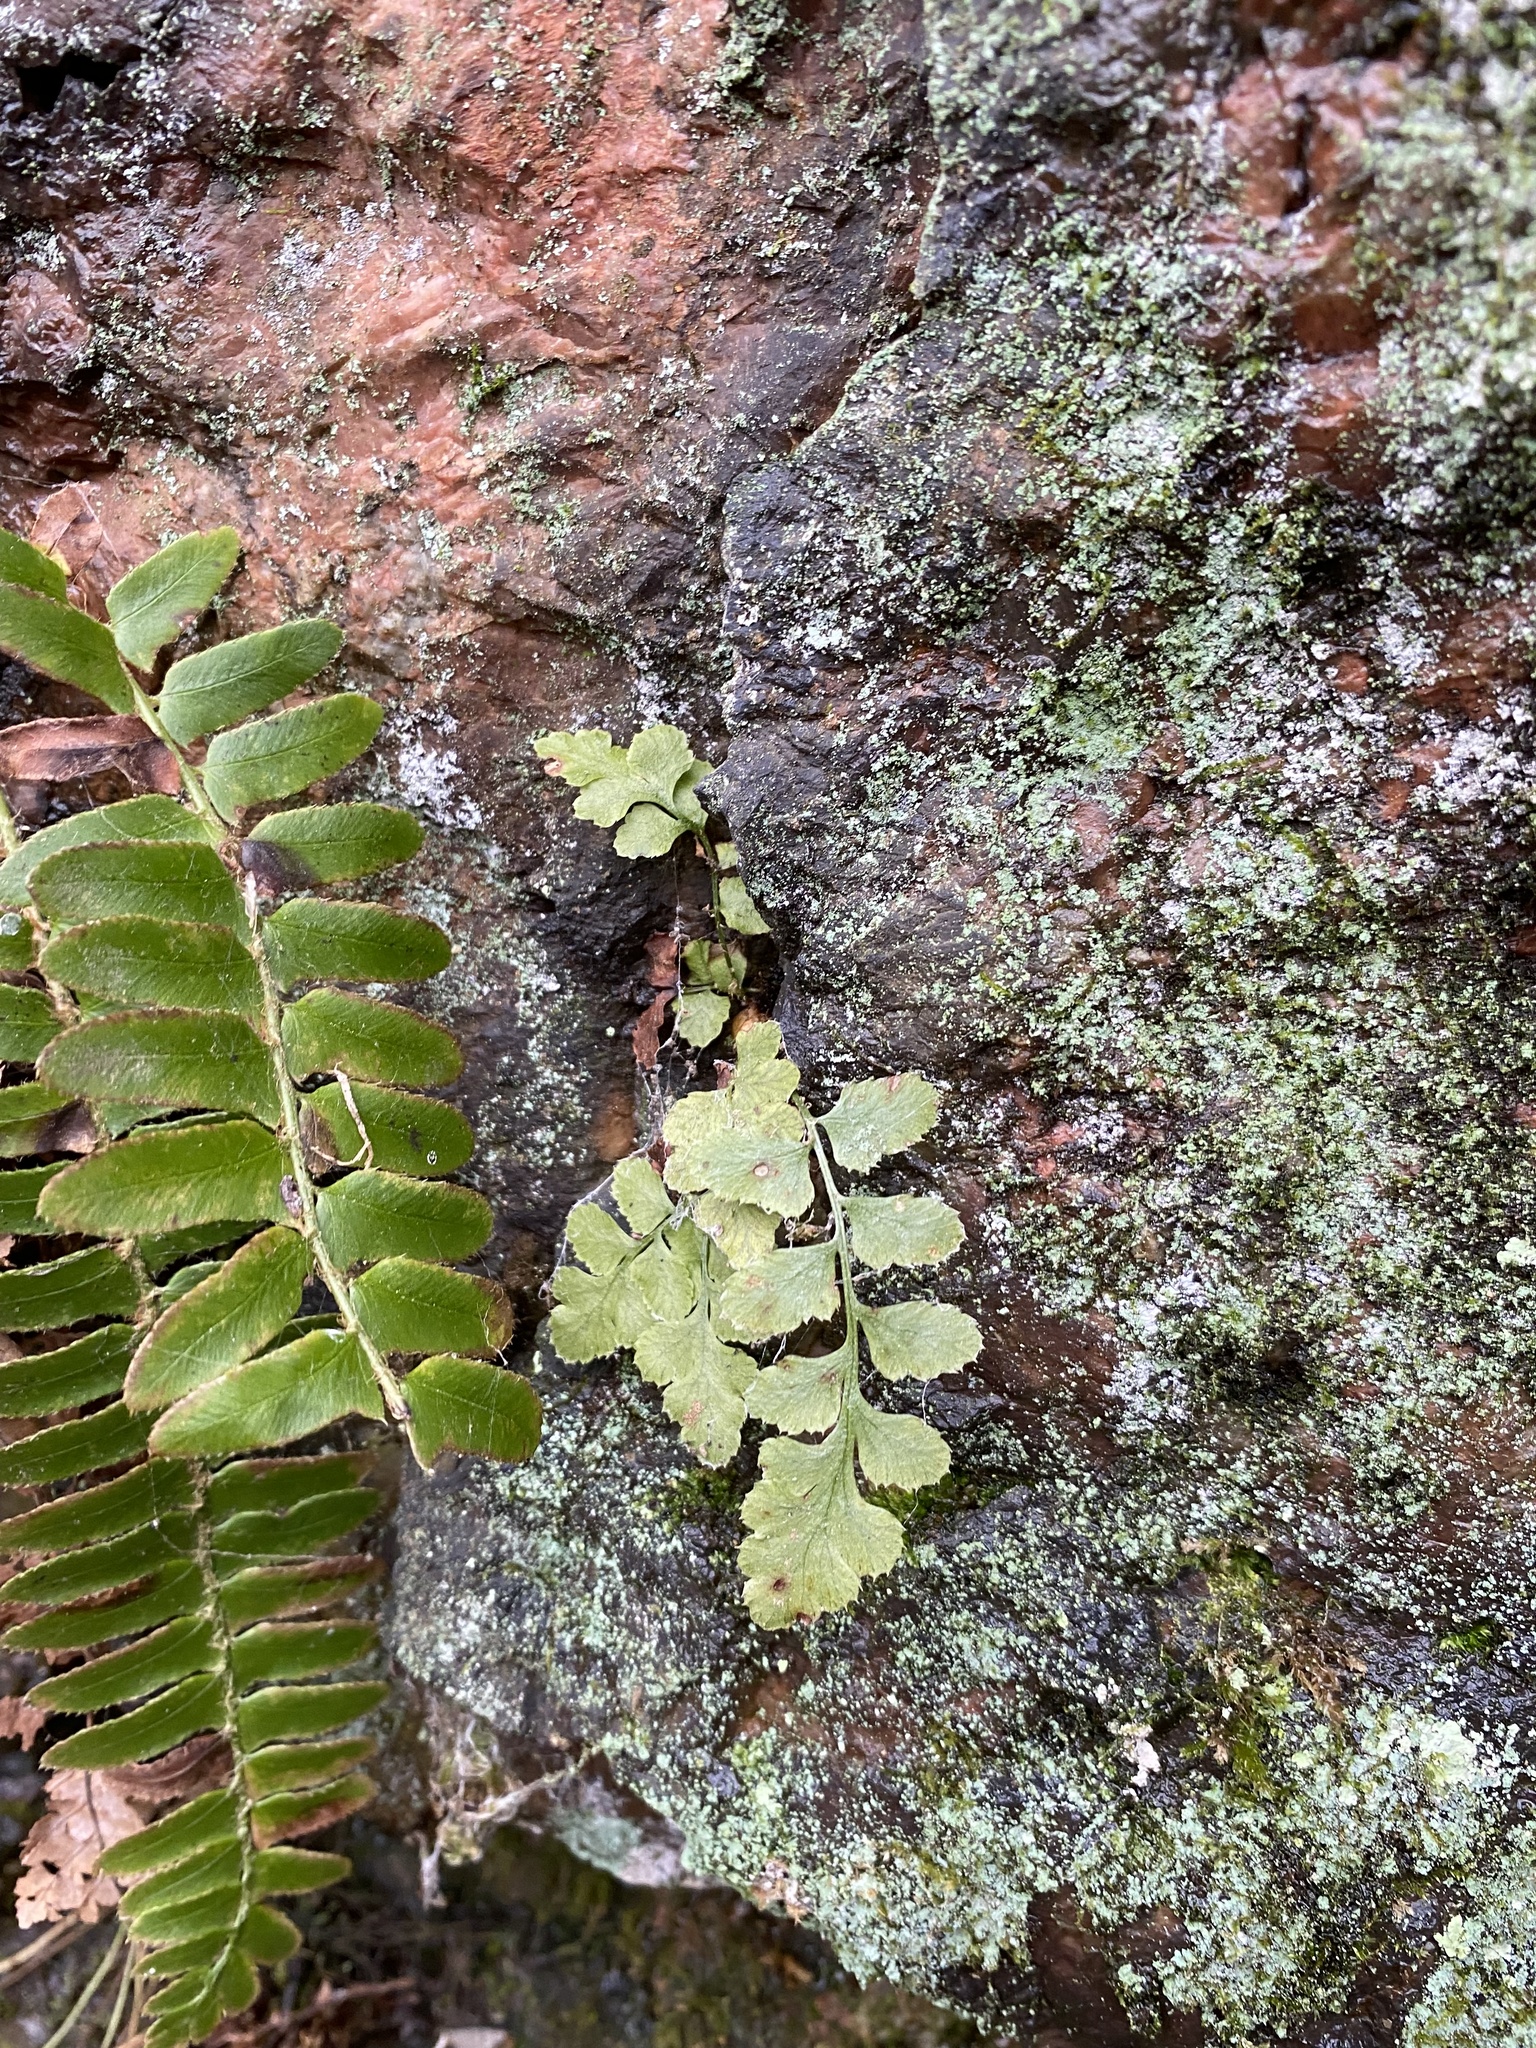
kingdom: Plantae
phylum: Tracheophyta
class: Polypodiopsida
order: Polypodiales
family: Dryopteridaceae
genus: Polystichum
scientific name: Polystichum acrostichoides
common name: Christmas fern
